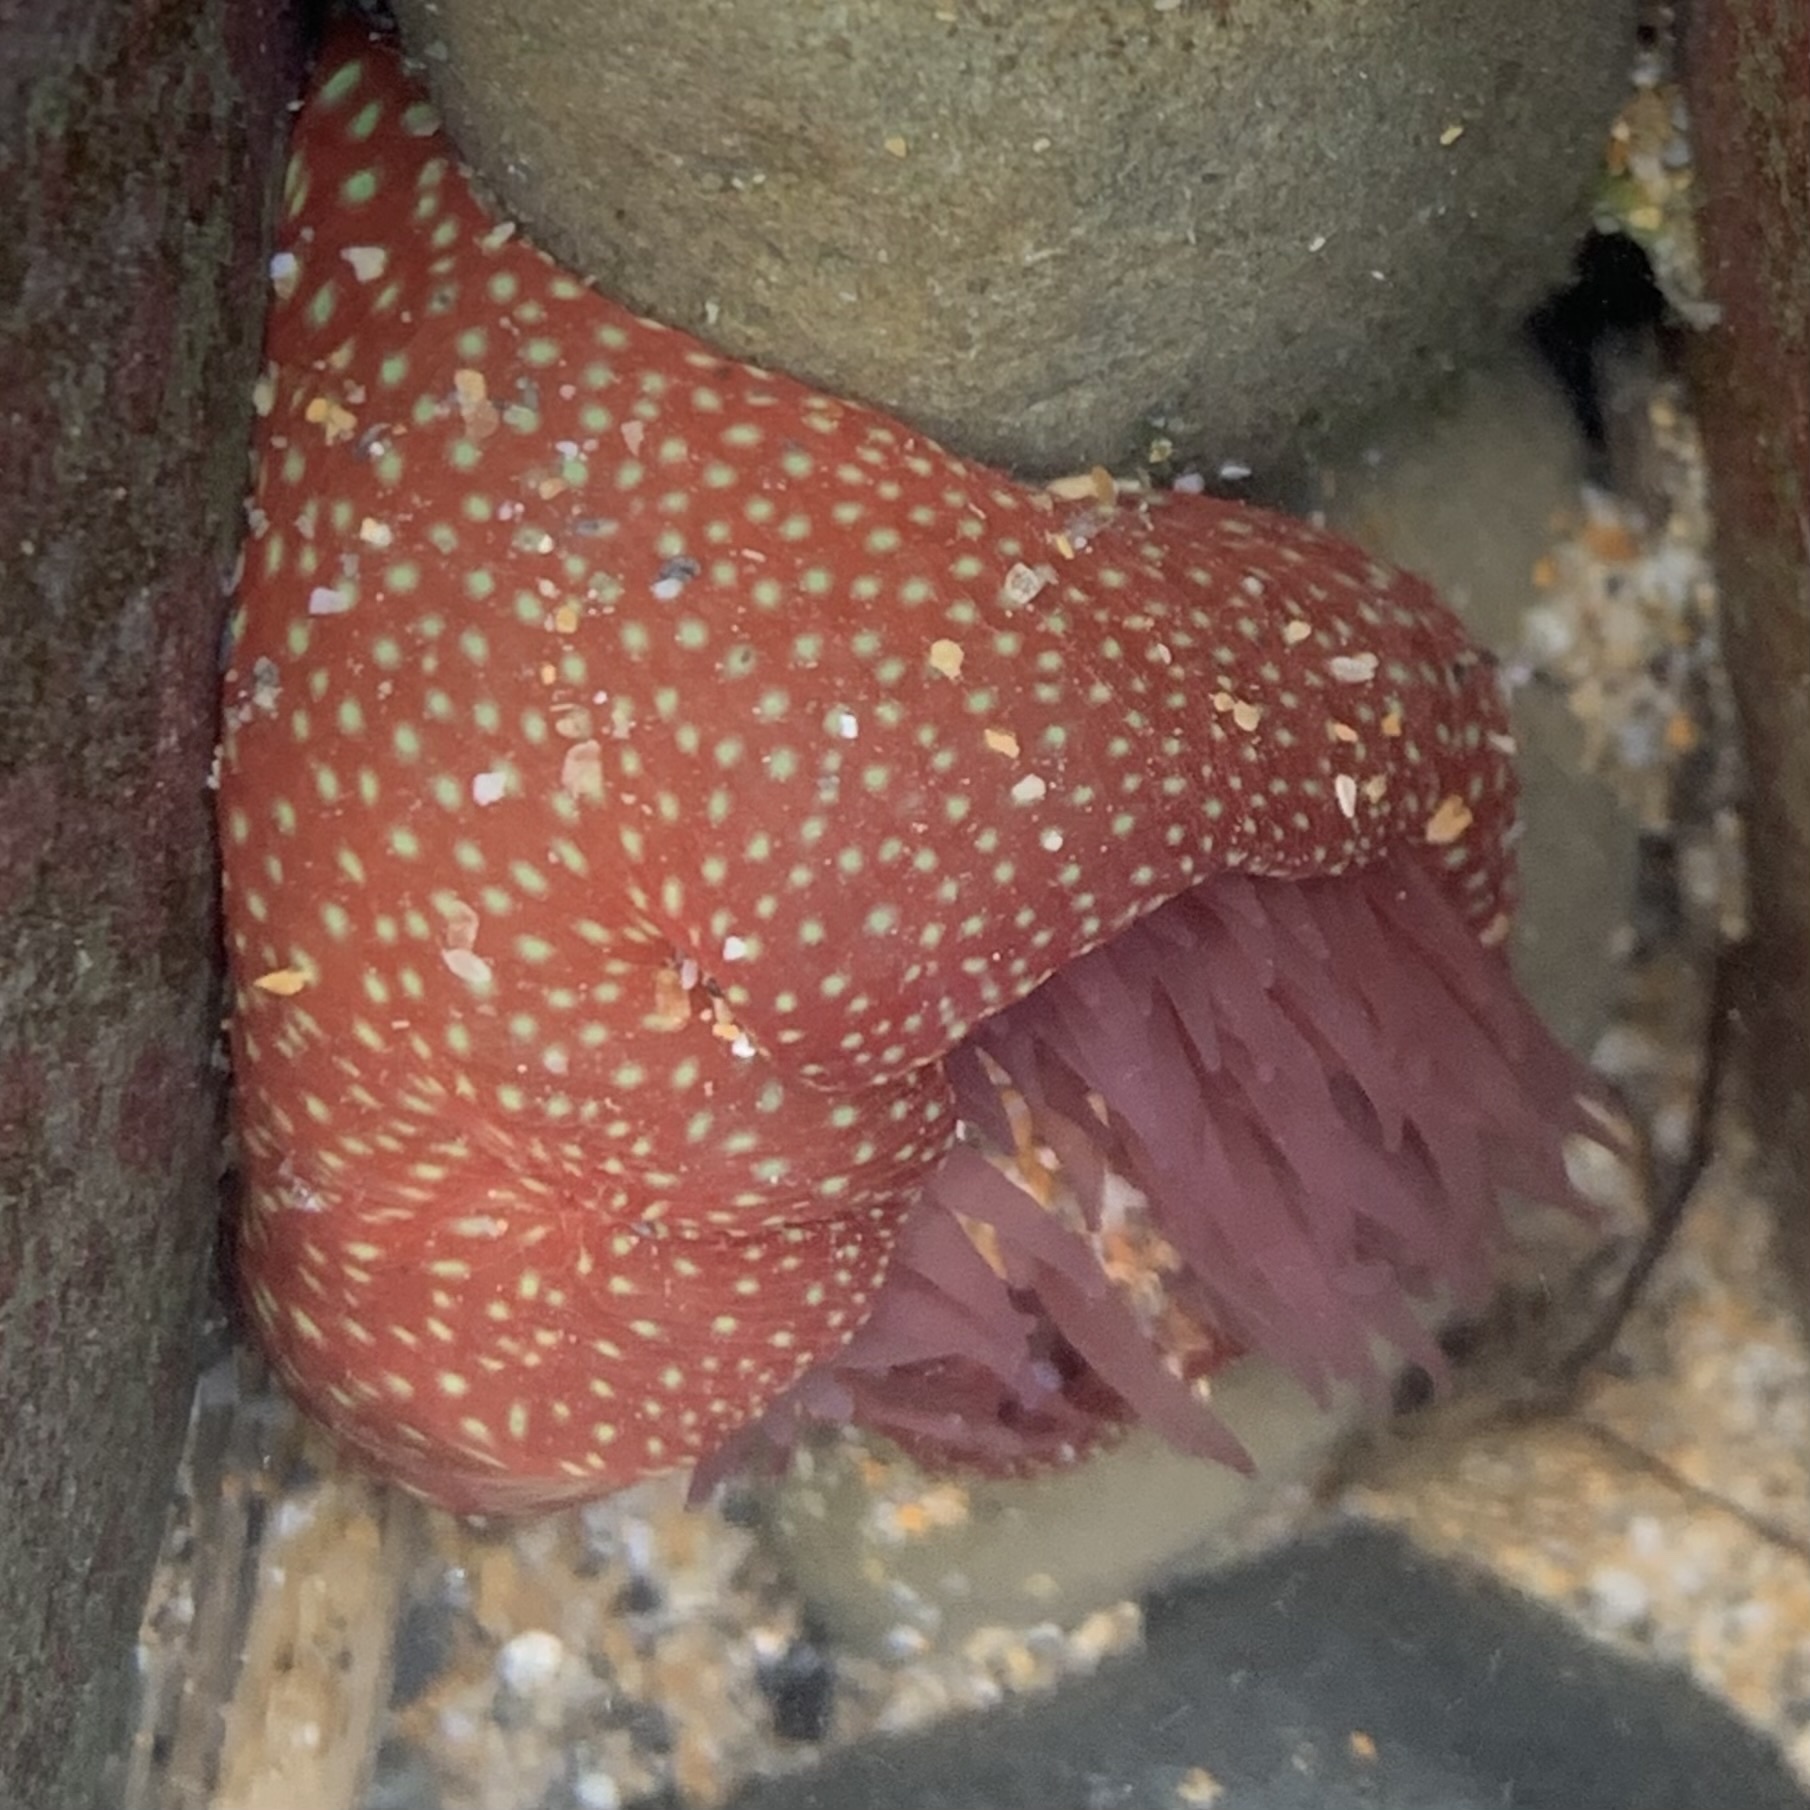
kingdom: Animalia
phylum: Cnidaria
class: Anthozoa
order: Actiniaria
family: Actiniidae
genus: Actinia
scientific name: Actinia fragacea
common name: Strawberry anemone
